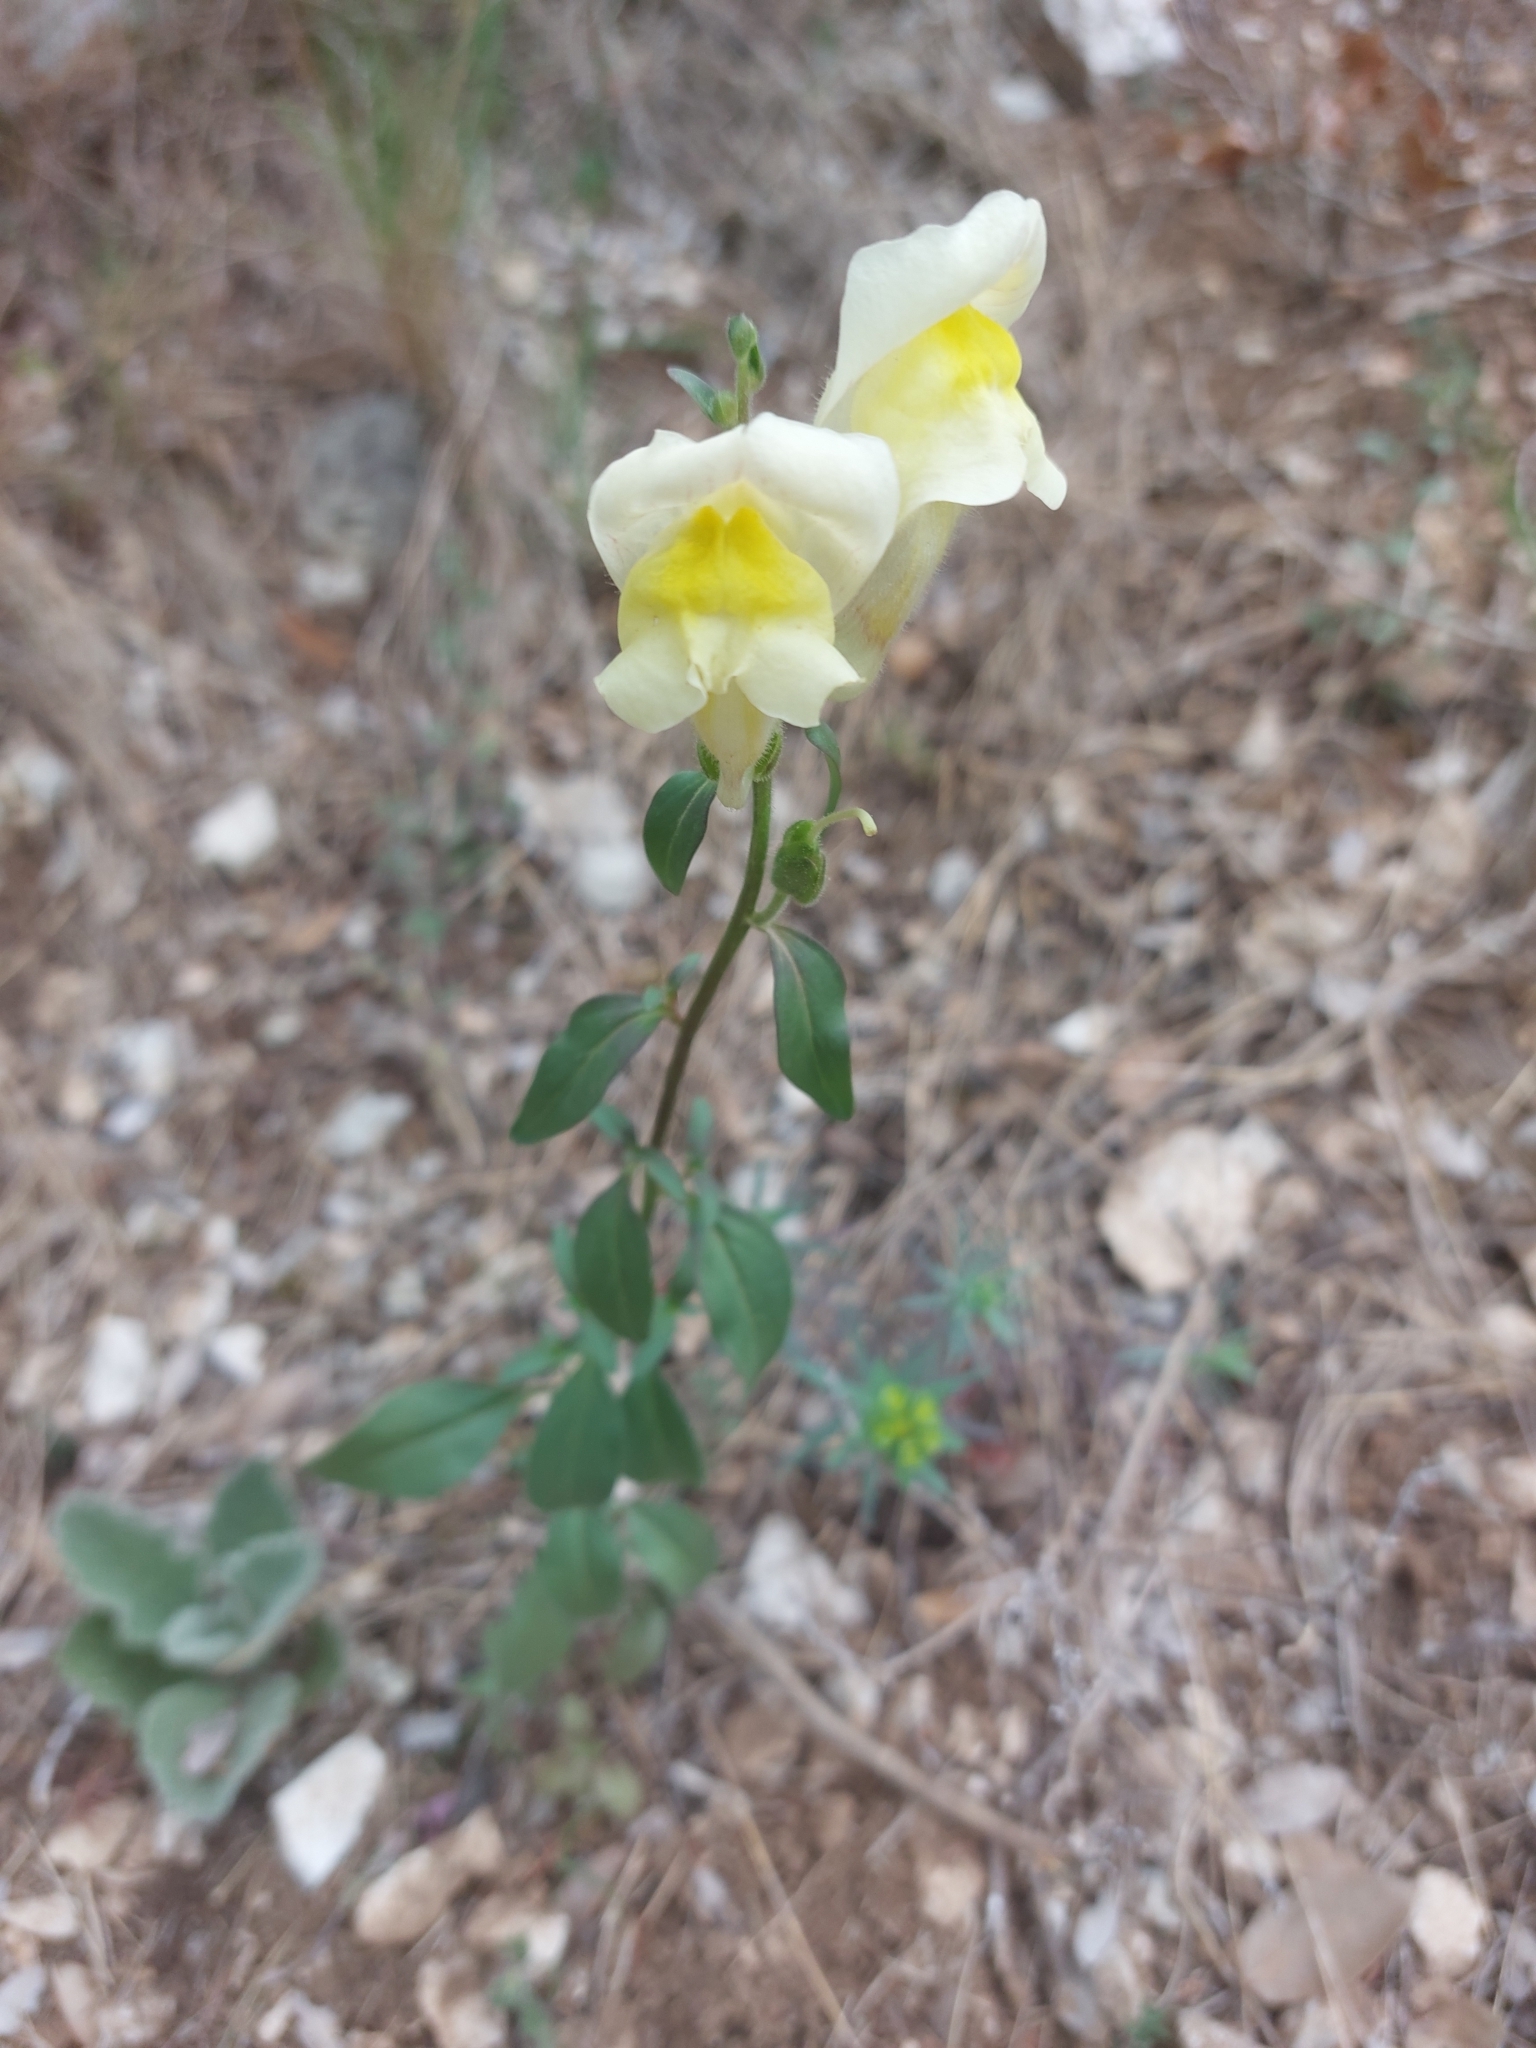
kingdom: Plantae
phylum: Tracheophyta
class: Magnoliopsida
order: Lamiales
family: Plantaginaceae
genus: Antirrhinum
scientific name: Antirrhinum latifolium
